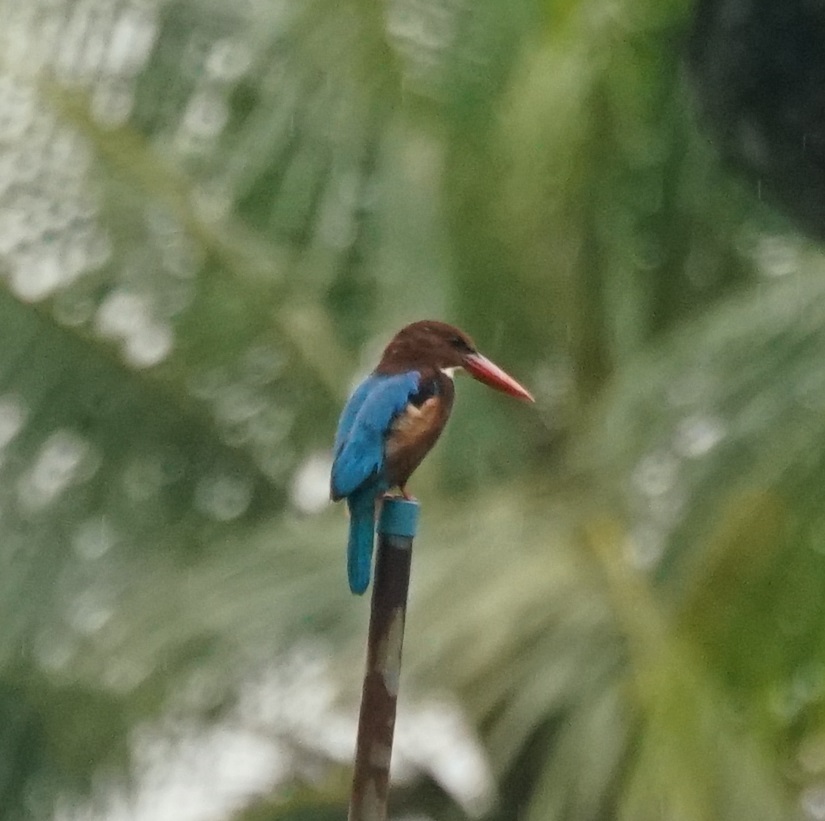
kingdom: Animalia
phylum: Chordata
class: Aves
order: Coraciiformes
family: Alcedinidae
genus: Halcyon
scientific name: Halcyon smyrnensis
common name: White-throated kingfisher
